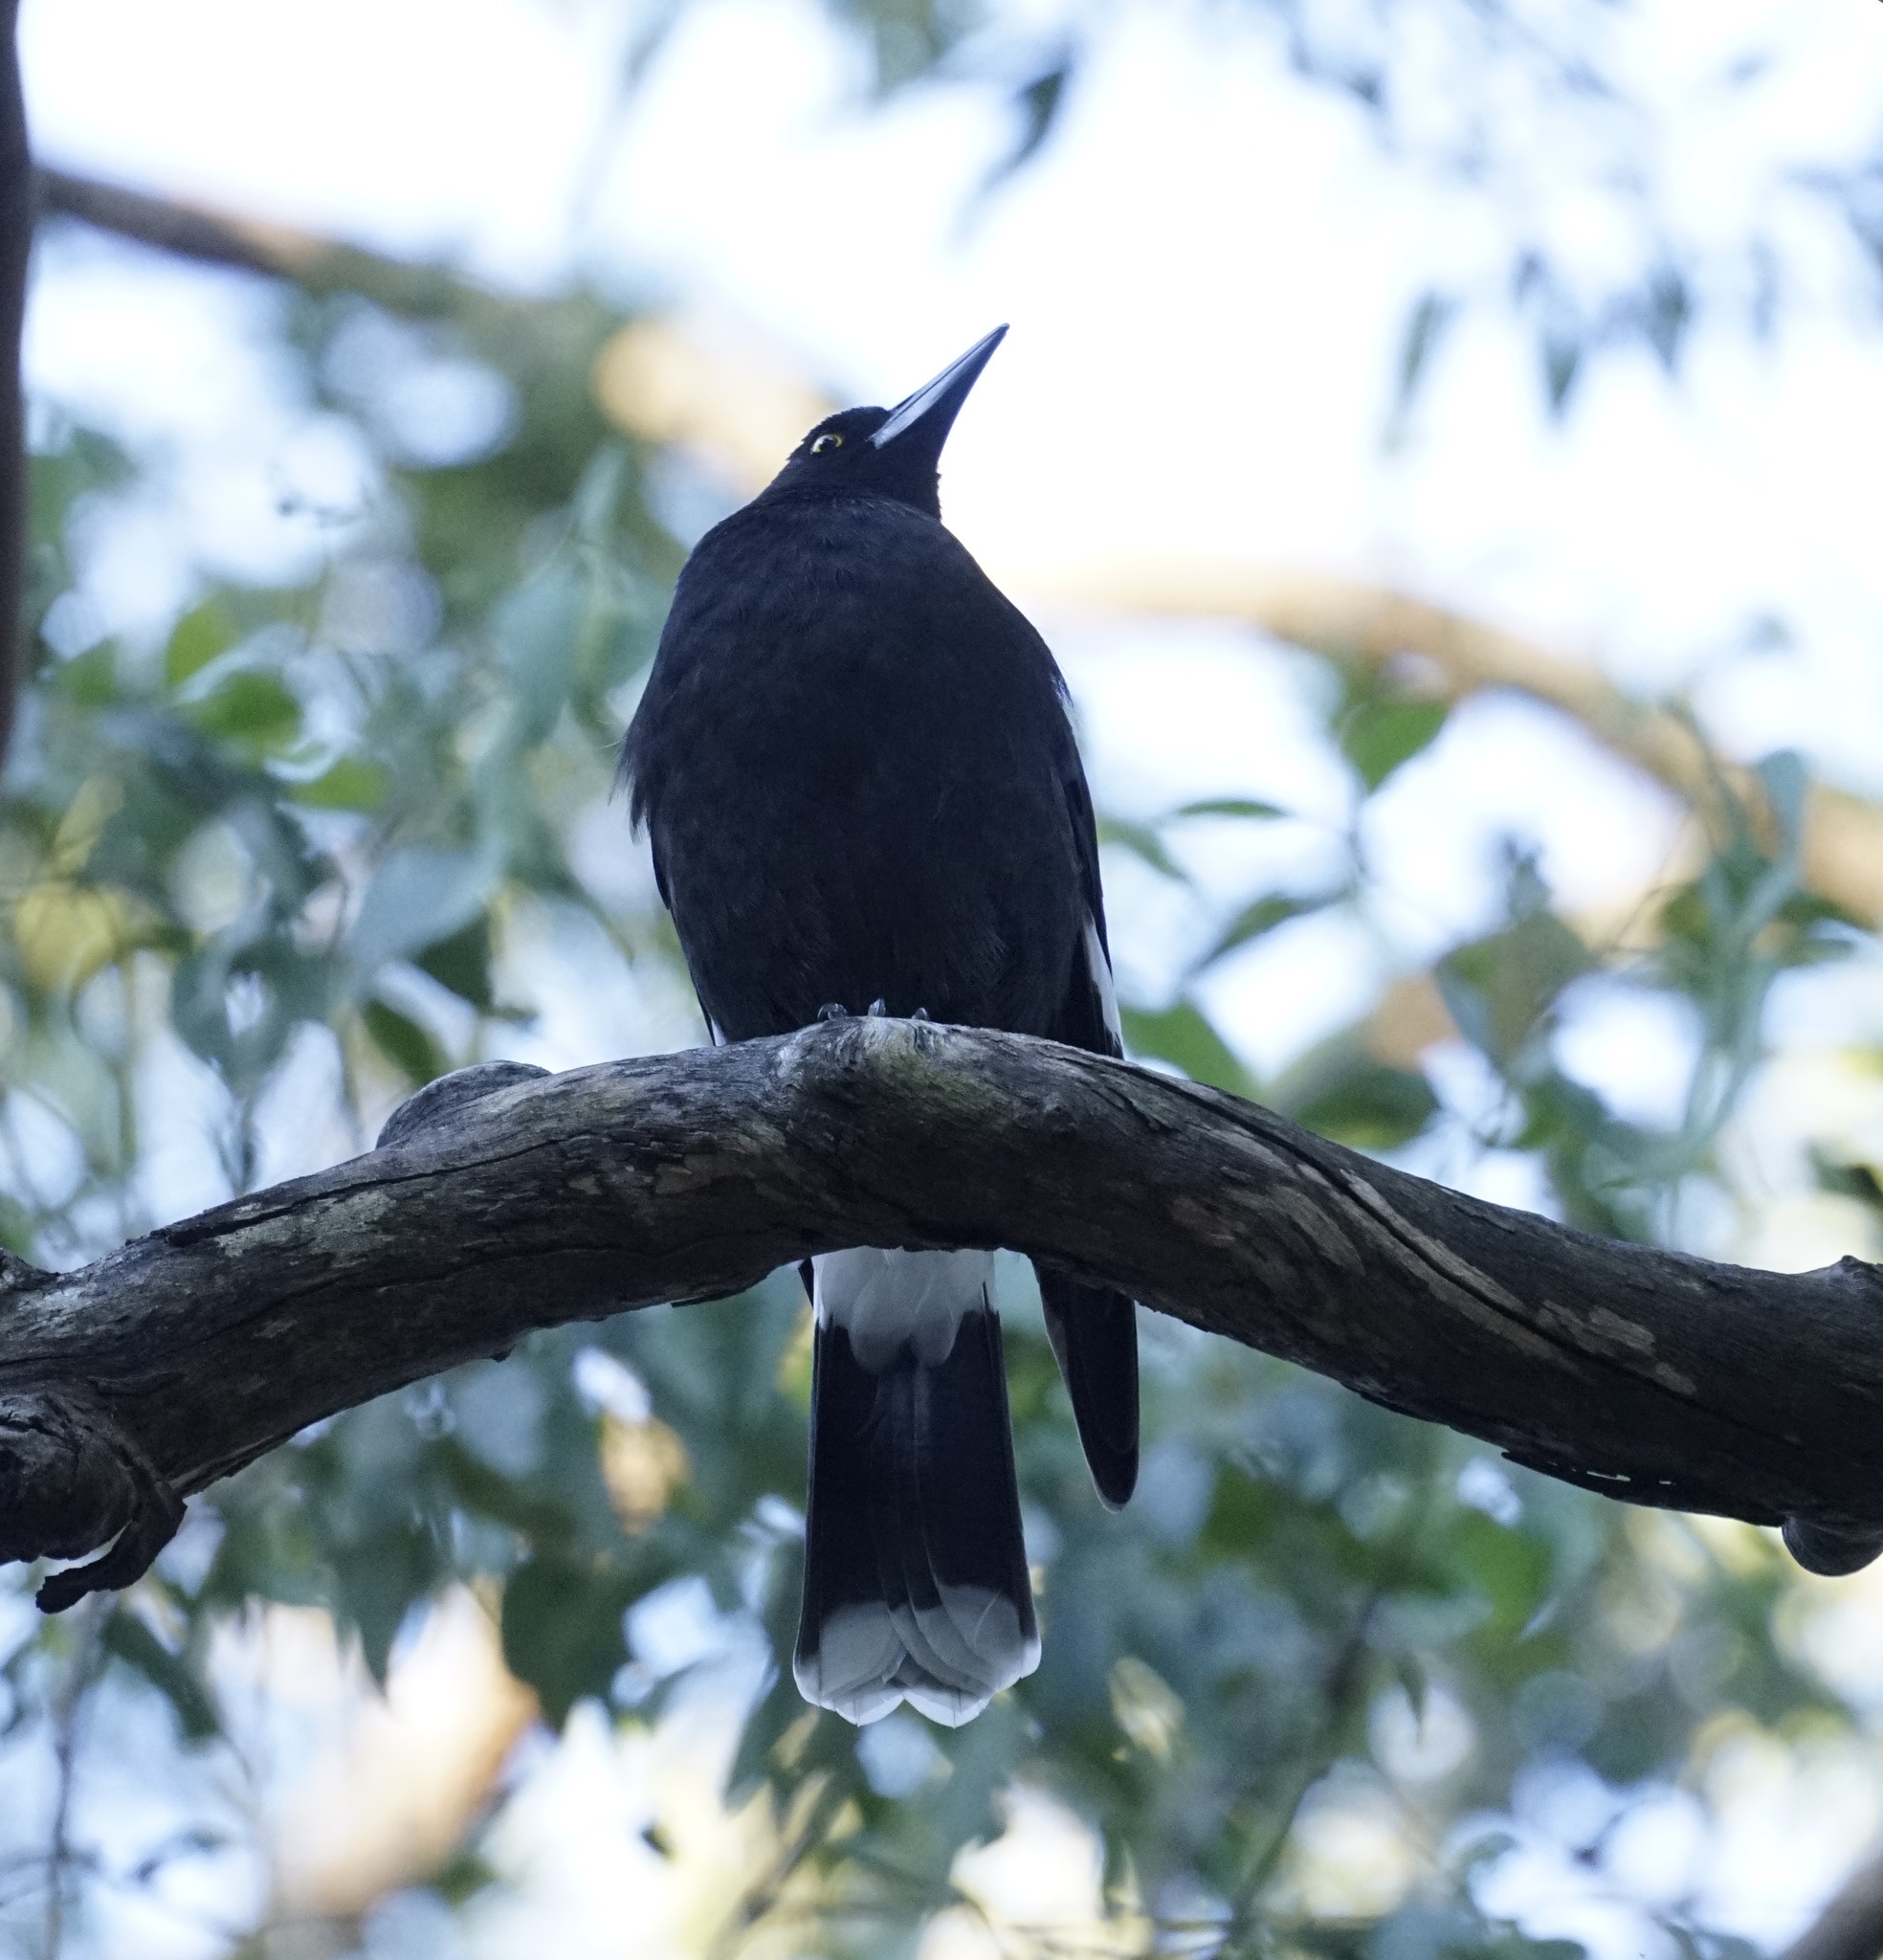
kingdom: Animalia
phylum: Chordata
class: Aves
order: Passeriformes
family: Cracticidae
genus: Strepera
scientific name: Strepera graculina
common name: Pied currawong
